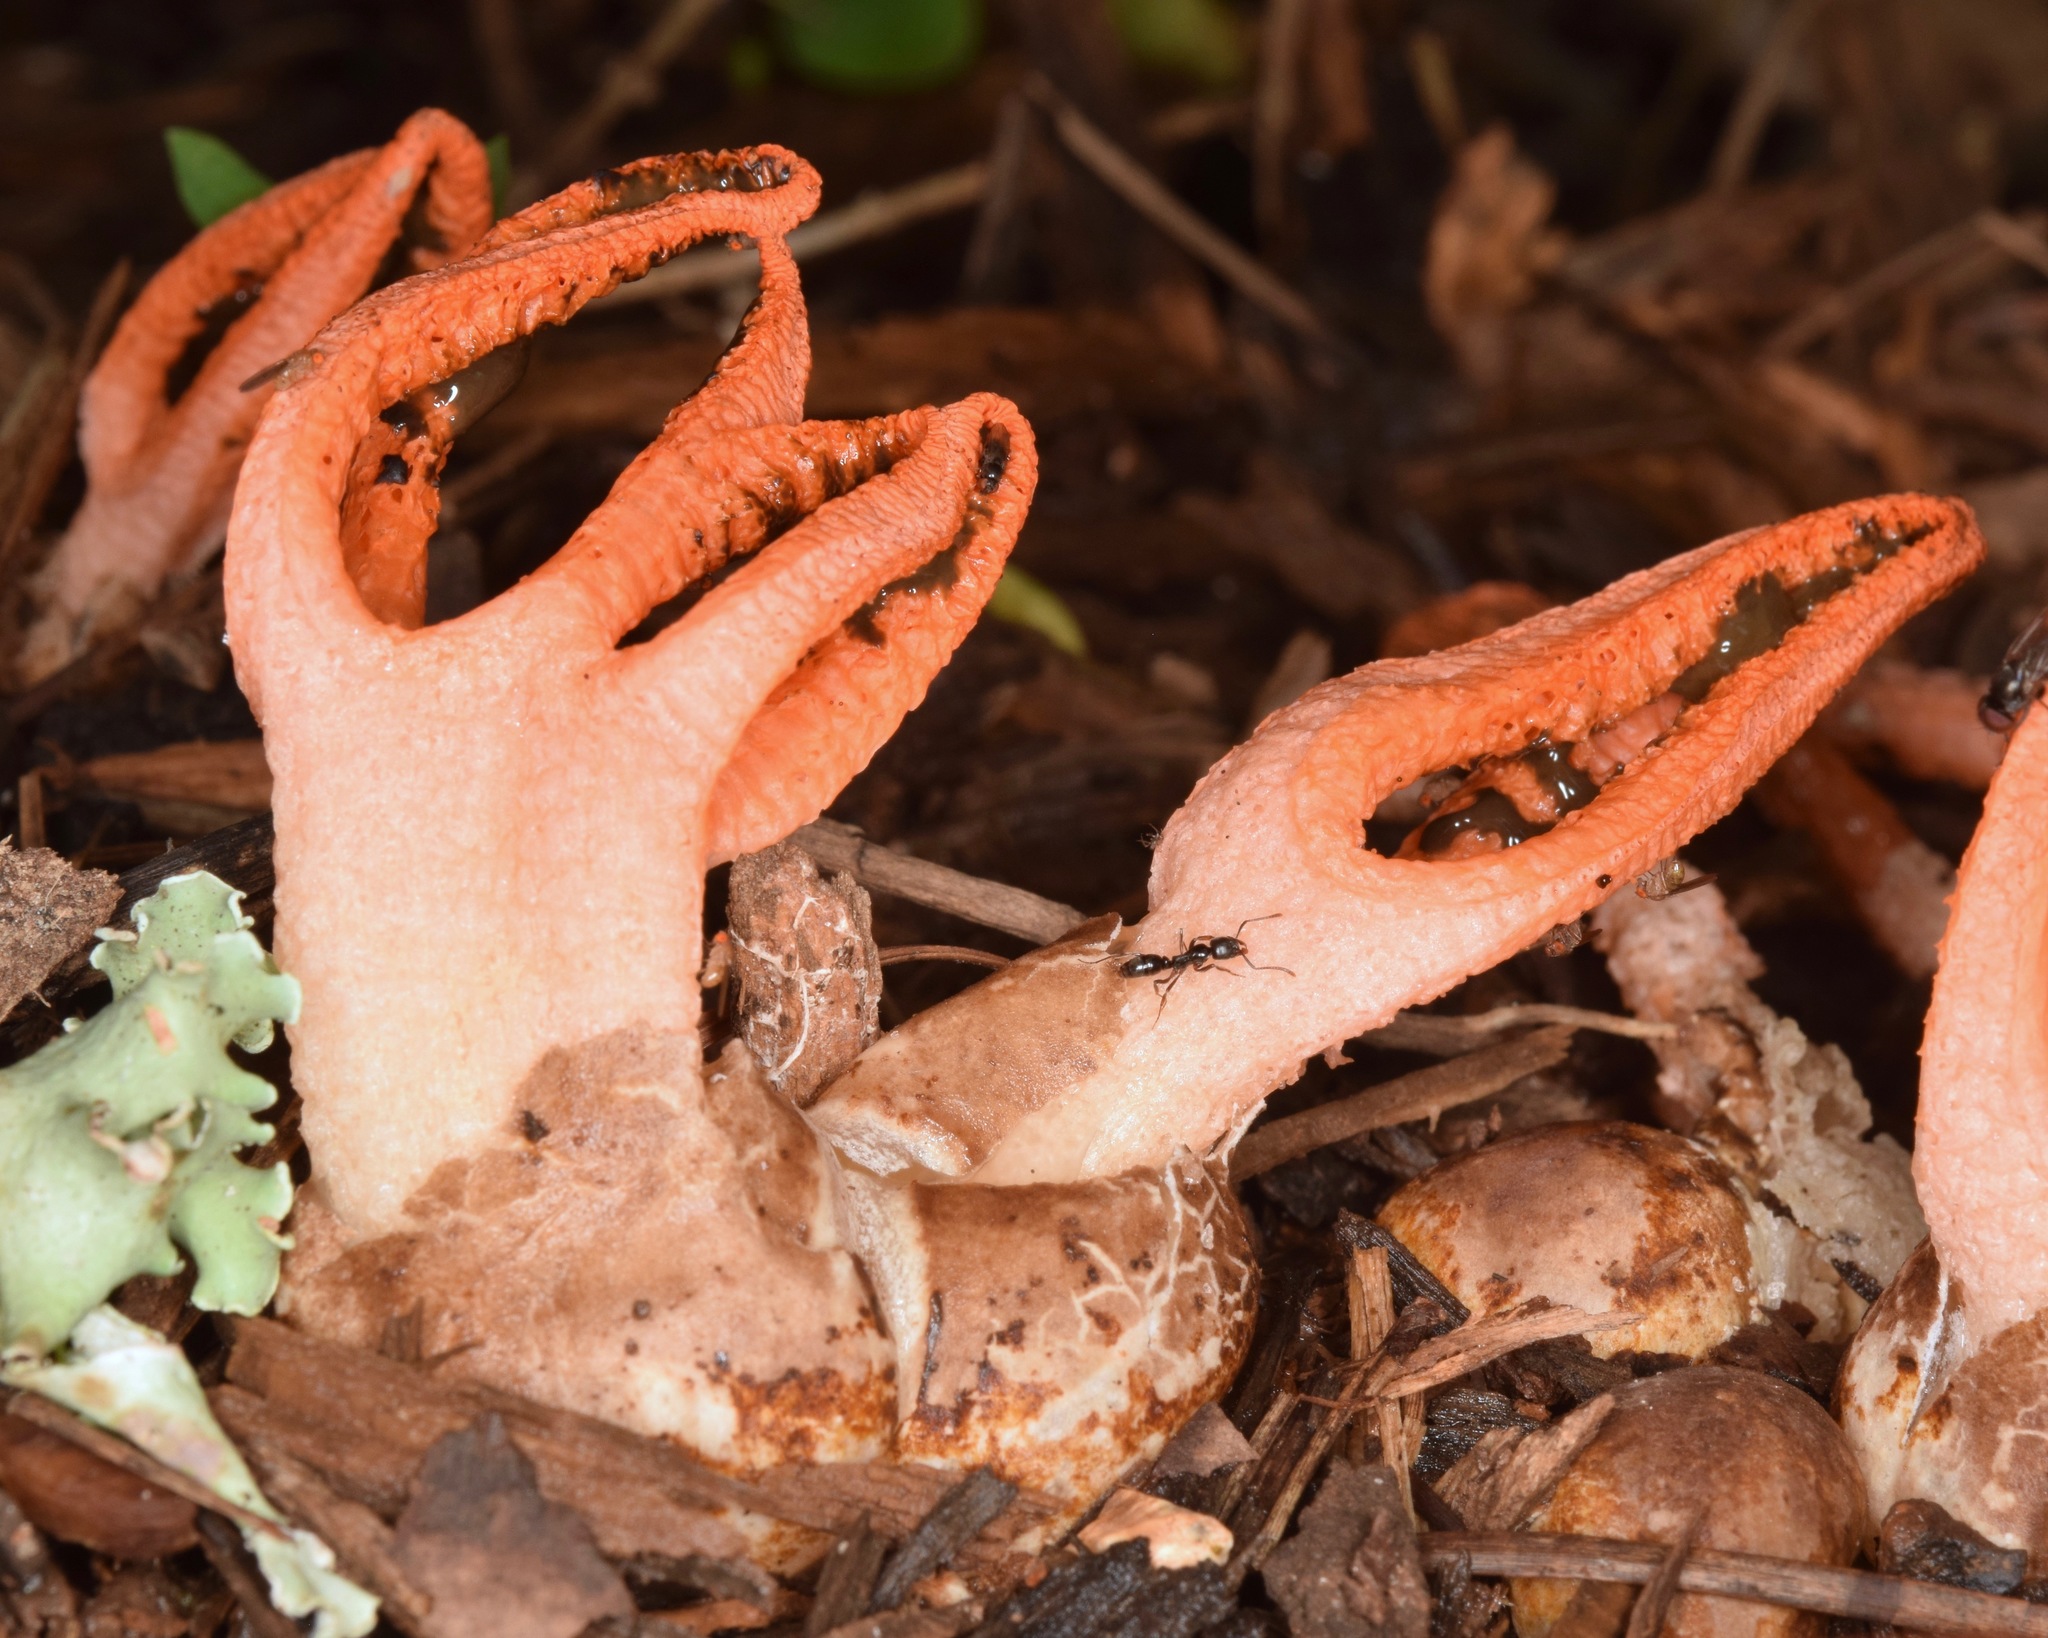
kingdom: Fungi
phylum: Basidiomycota
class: Agaricomycetes
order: Phallales
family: Phallaceae
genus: Pseudocolus
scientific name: Pseudocolus fusiformis
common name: Stinky squid
